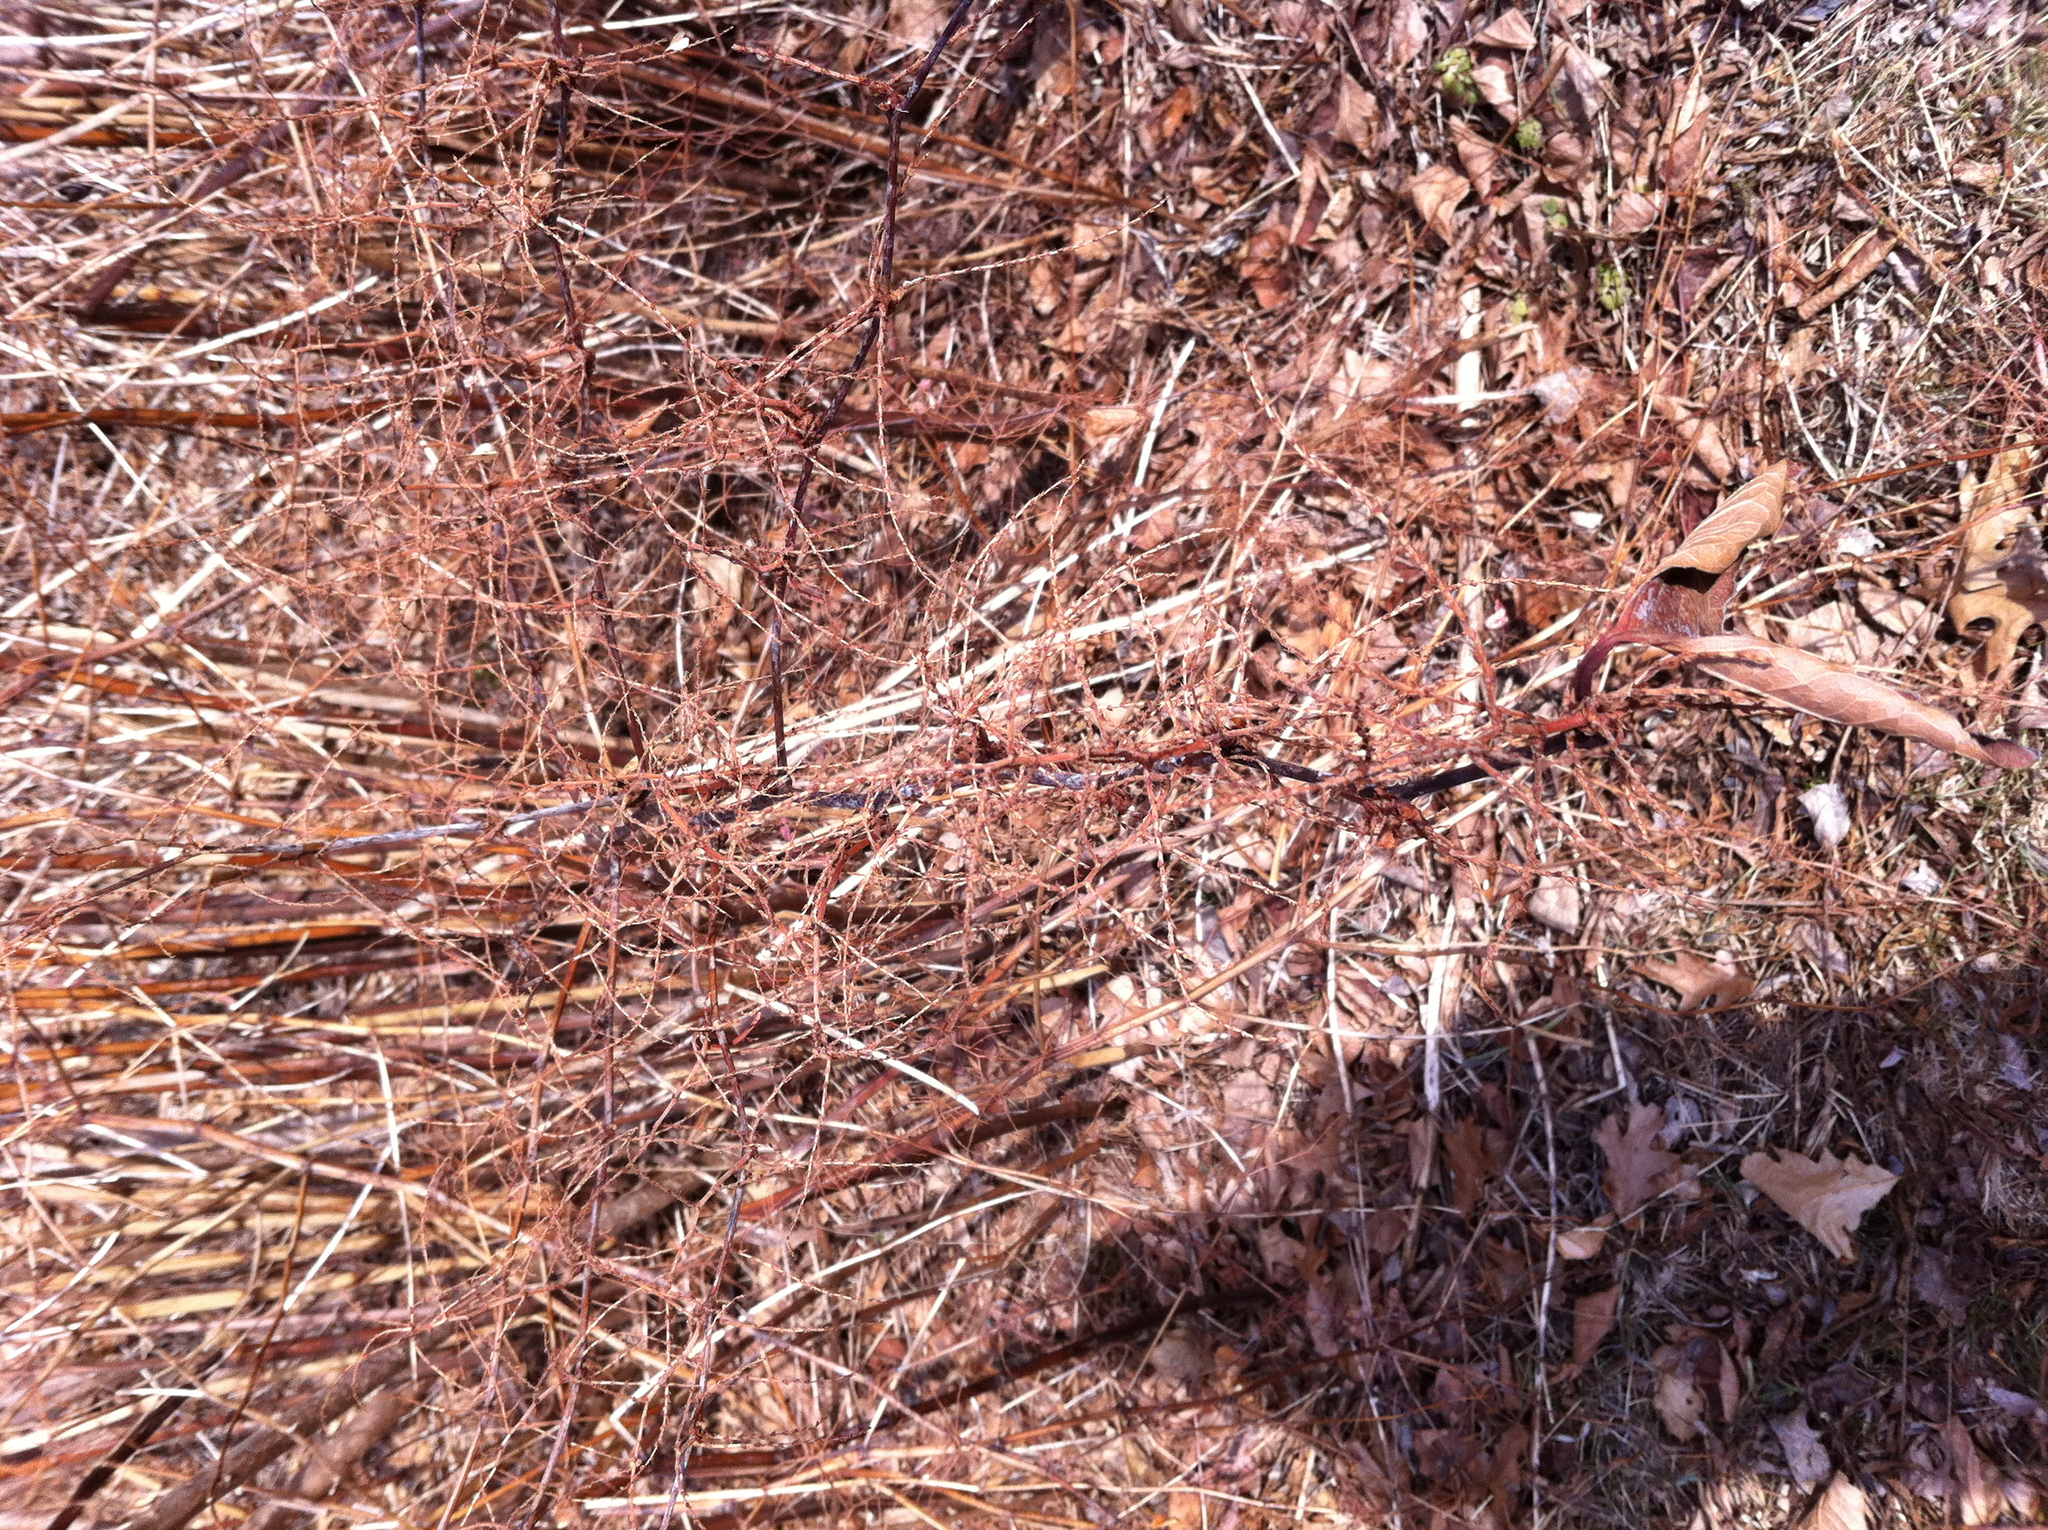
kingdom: Plantae
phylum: Tracheophyta
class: Magnoliopsida
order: Caryophyllales
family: Polygonaceae
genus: Reynoutria
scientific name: Reynoutria japonica
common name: Japanese knotweed
